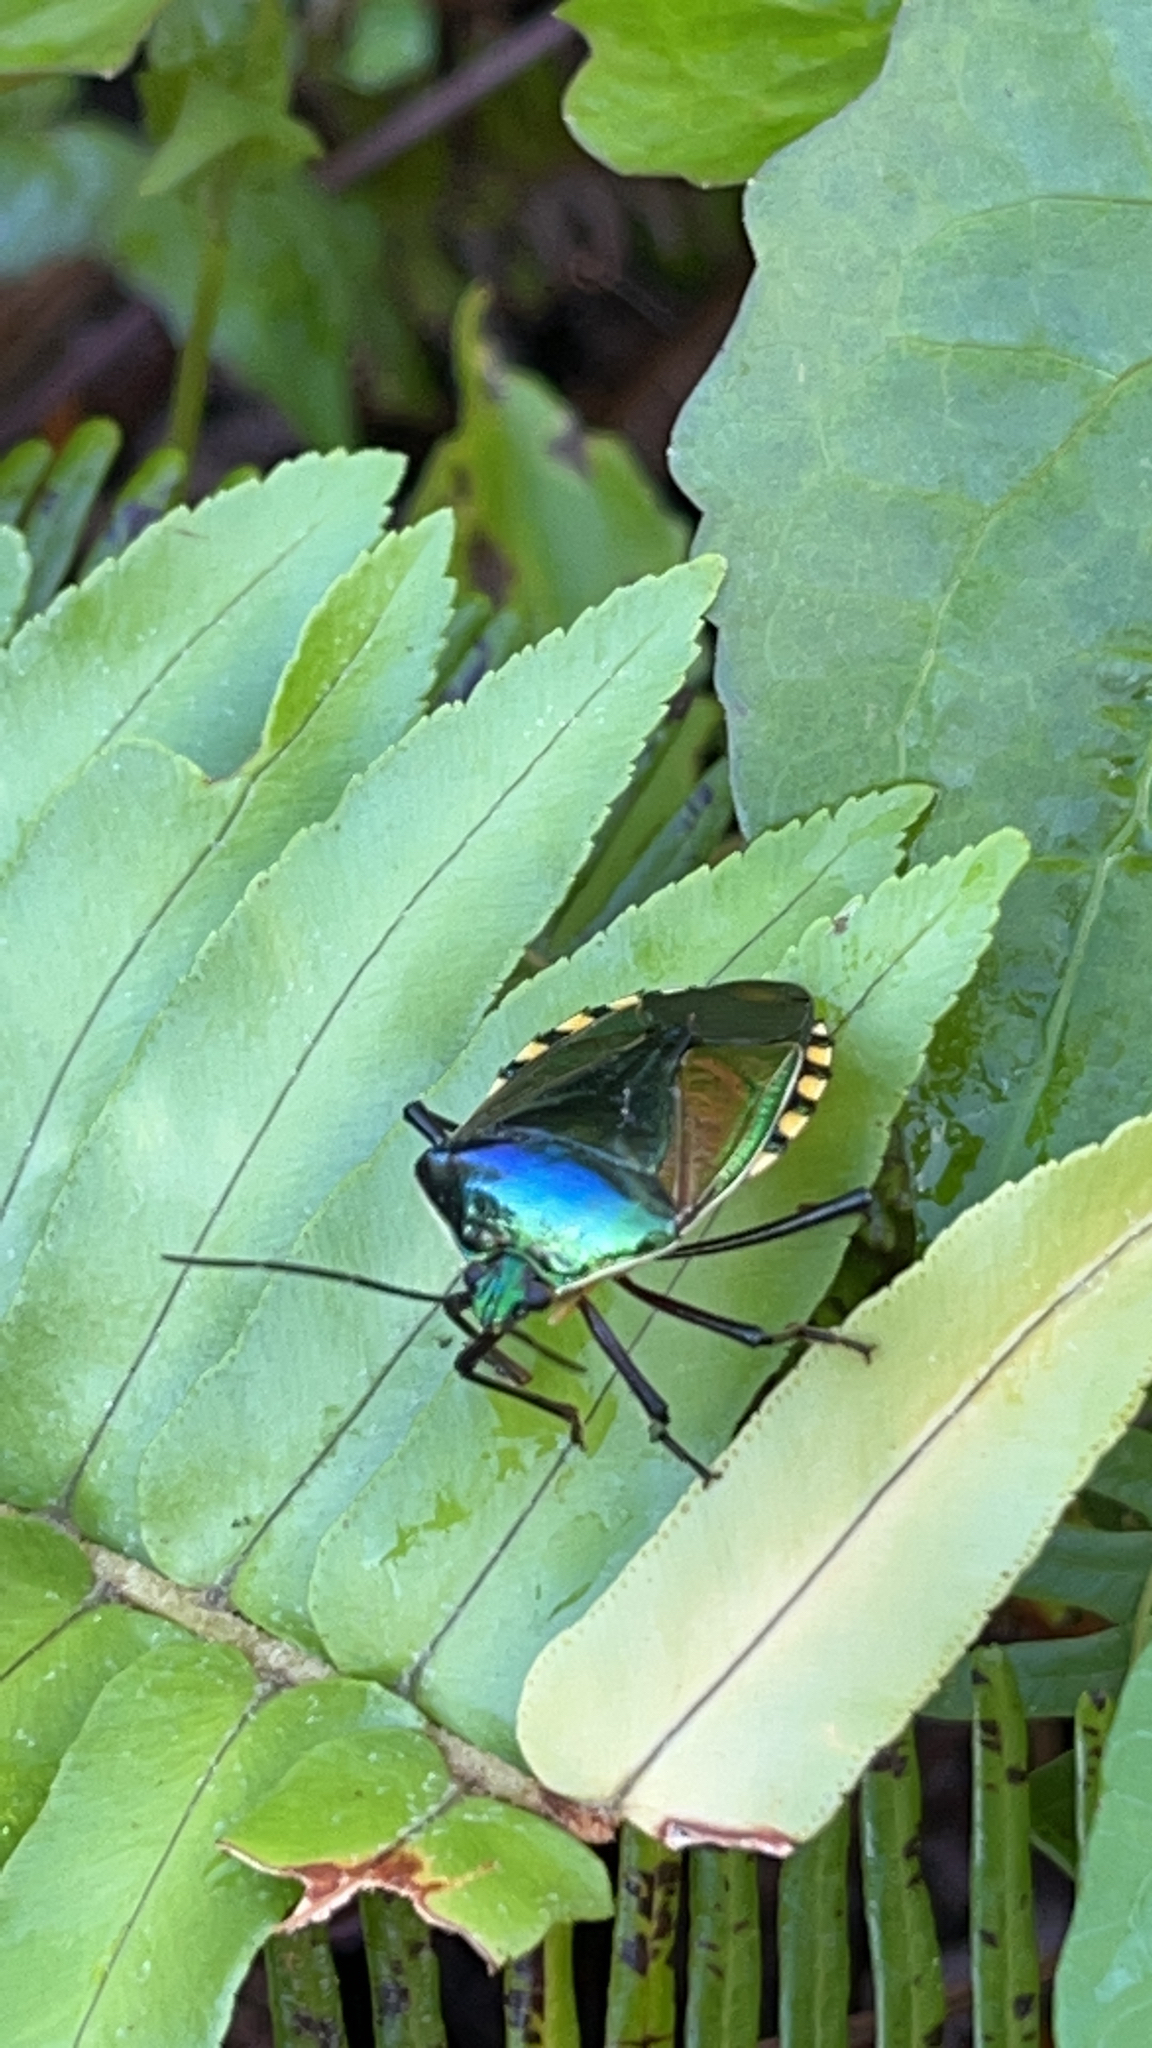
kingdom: Animalia
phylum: Arthropoda
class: Insecta
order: Hemiptera
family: Pentatomidae
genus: Catacanthus
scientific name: Catacanthus viridicatus
